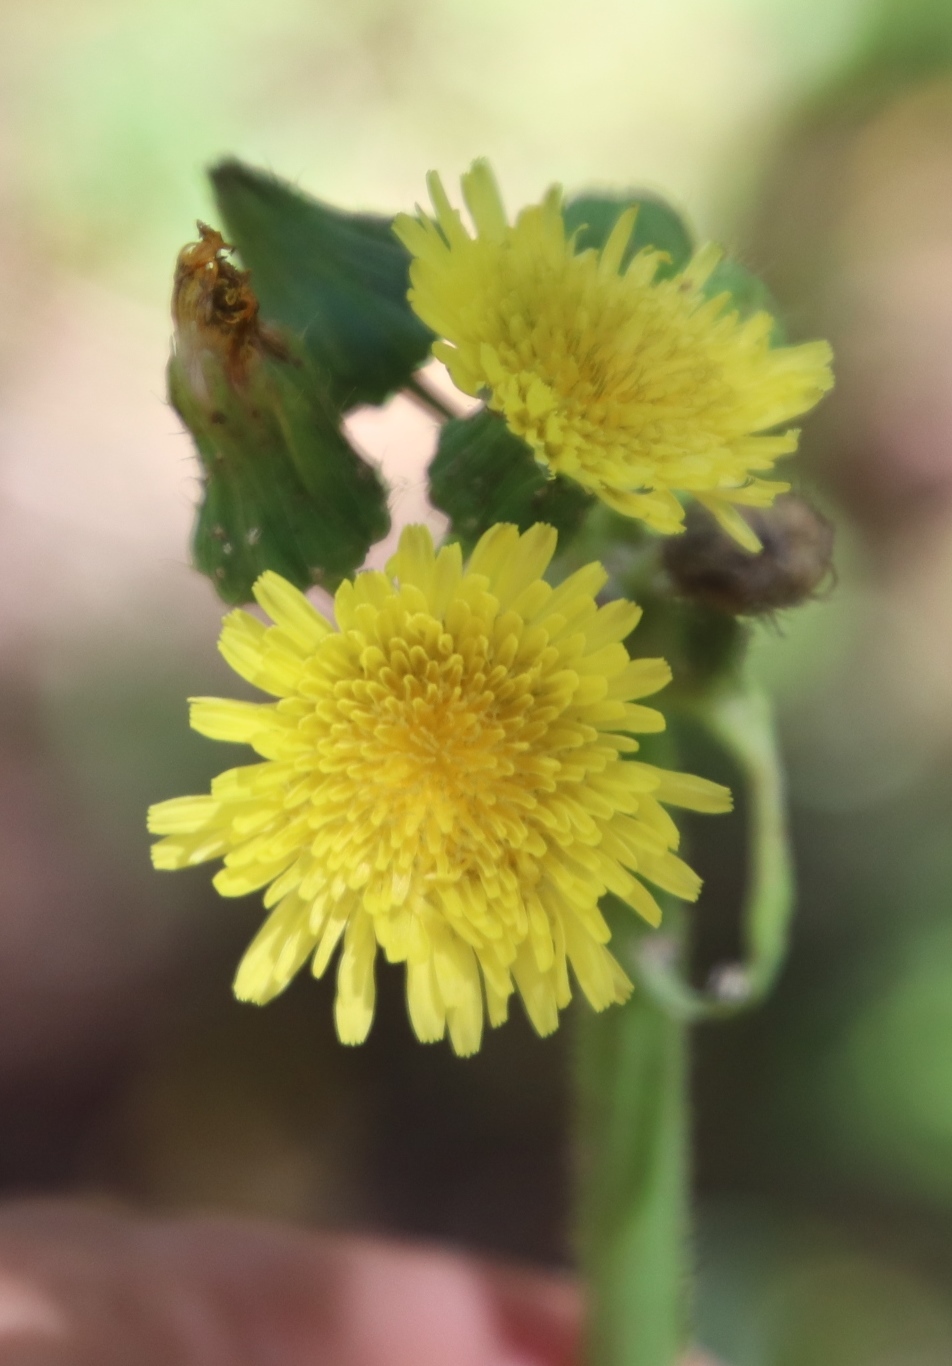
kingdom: Plantae
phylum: Tracheophyta
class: Magnoliopsida
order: Asterales
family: Asteraceae
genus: Sonchus
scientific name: Sonchus oleraceus
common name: Common sowthistle
